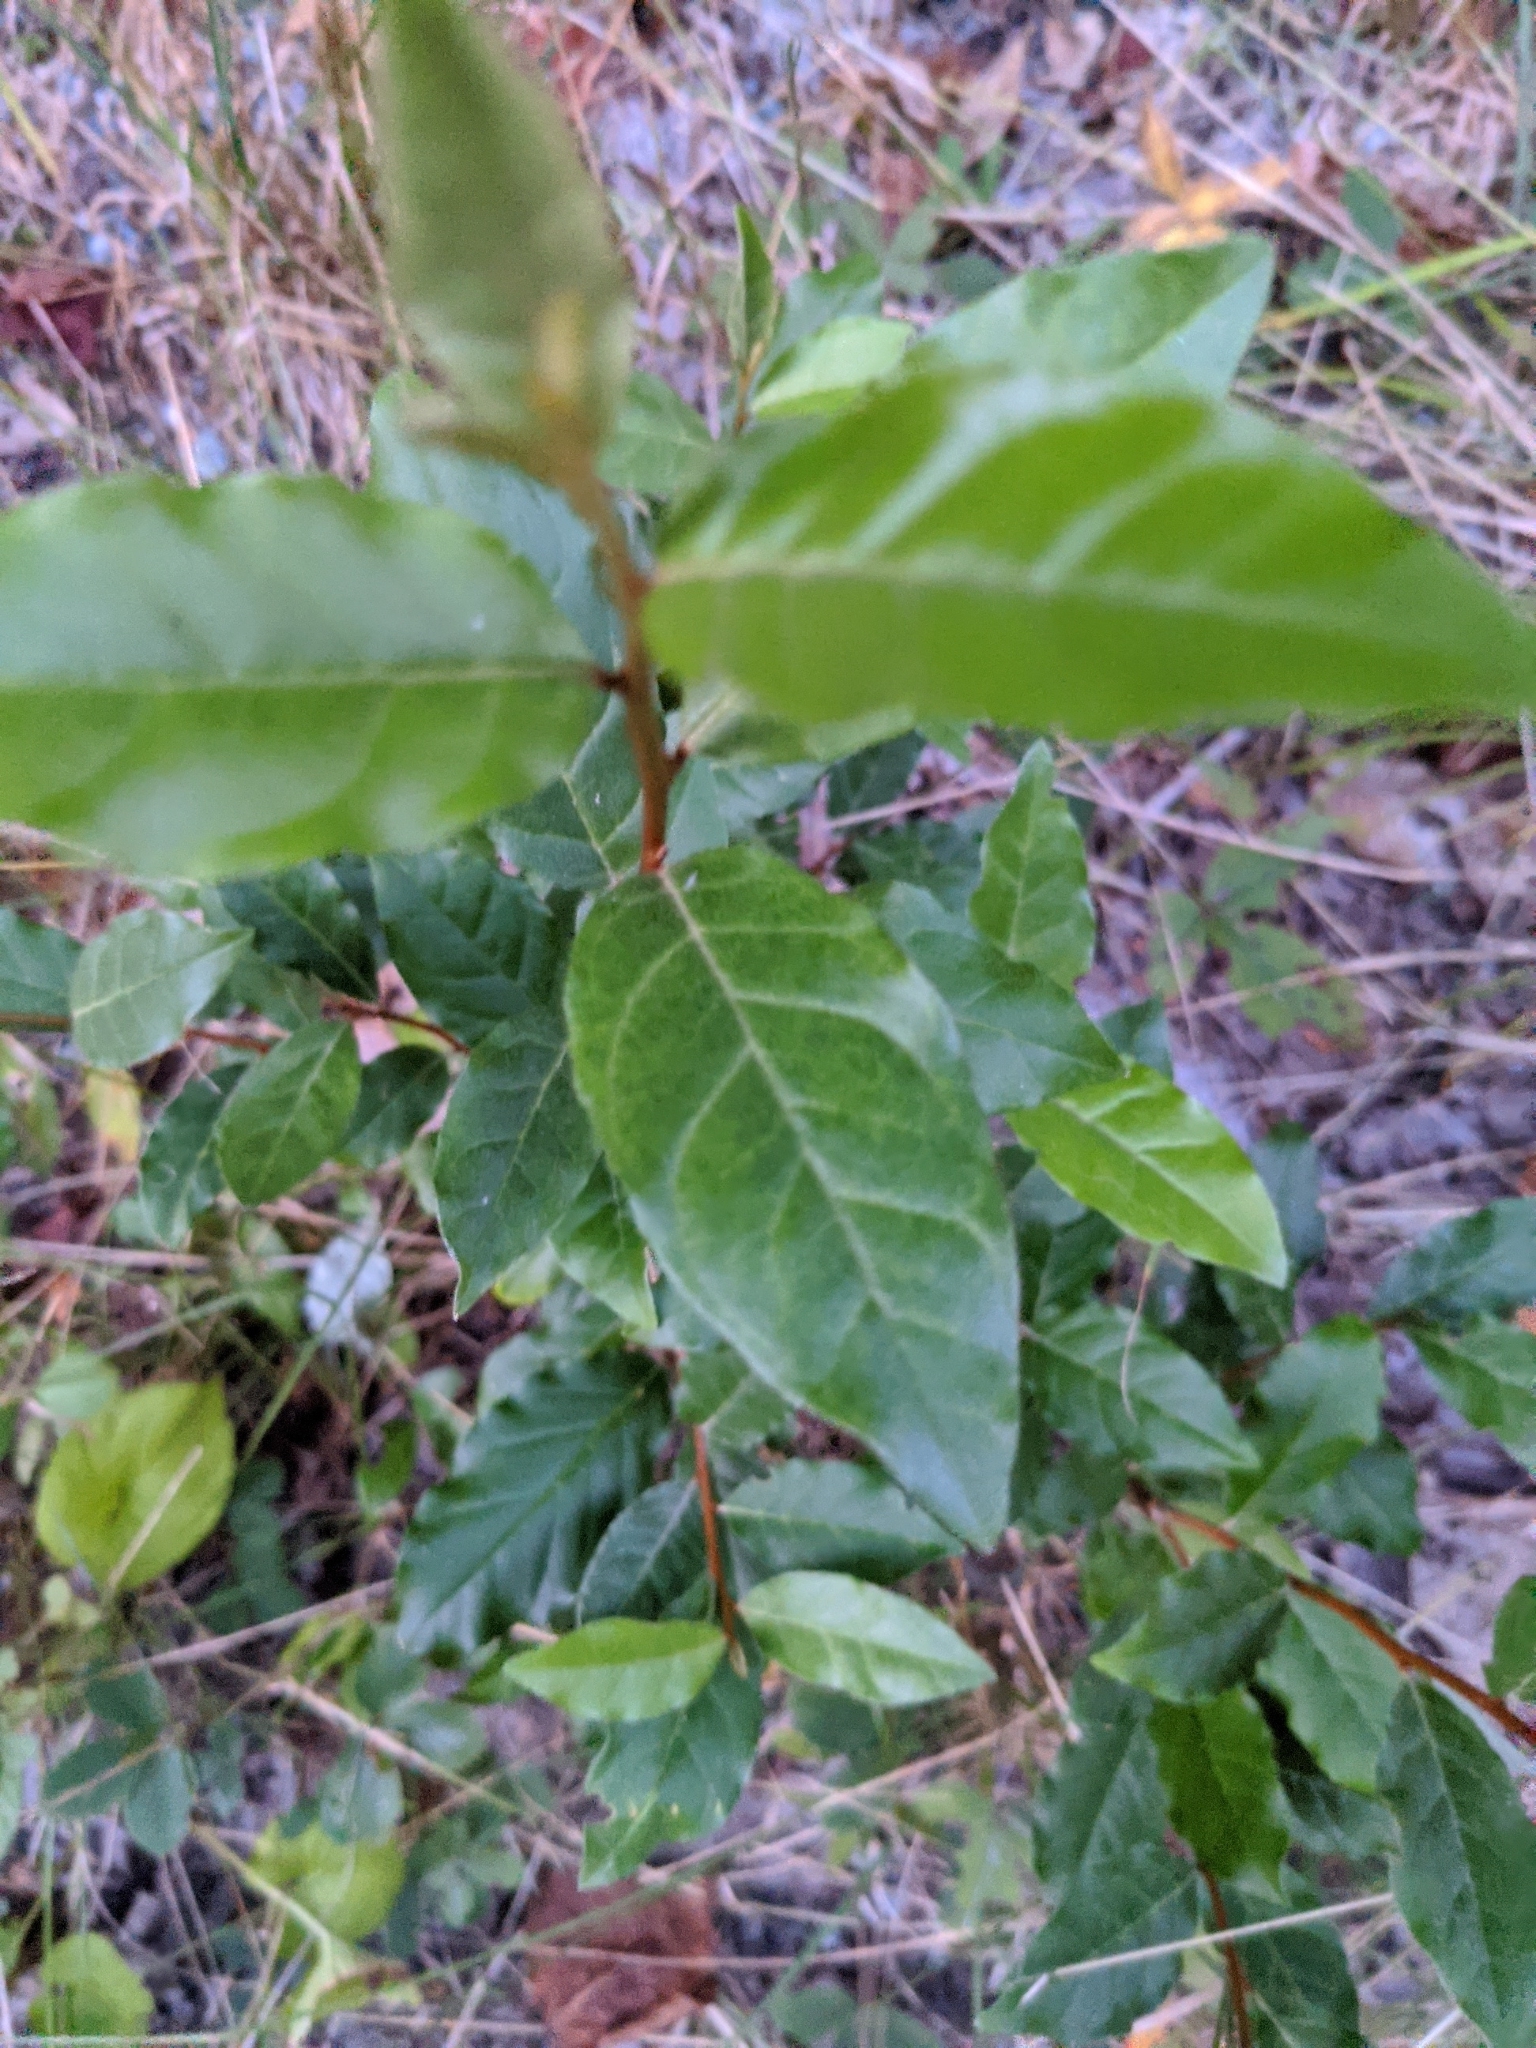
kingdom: Plantae
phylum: Tracheophyta
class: Magnoliopsida
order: Rosales
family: Elaeagnaceae
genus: Elaeagnus
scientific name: Elaeagnus umbellata
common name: Autumn olive
